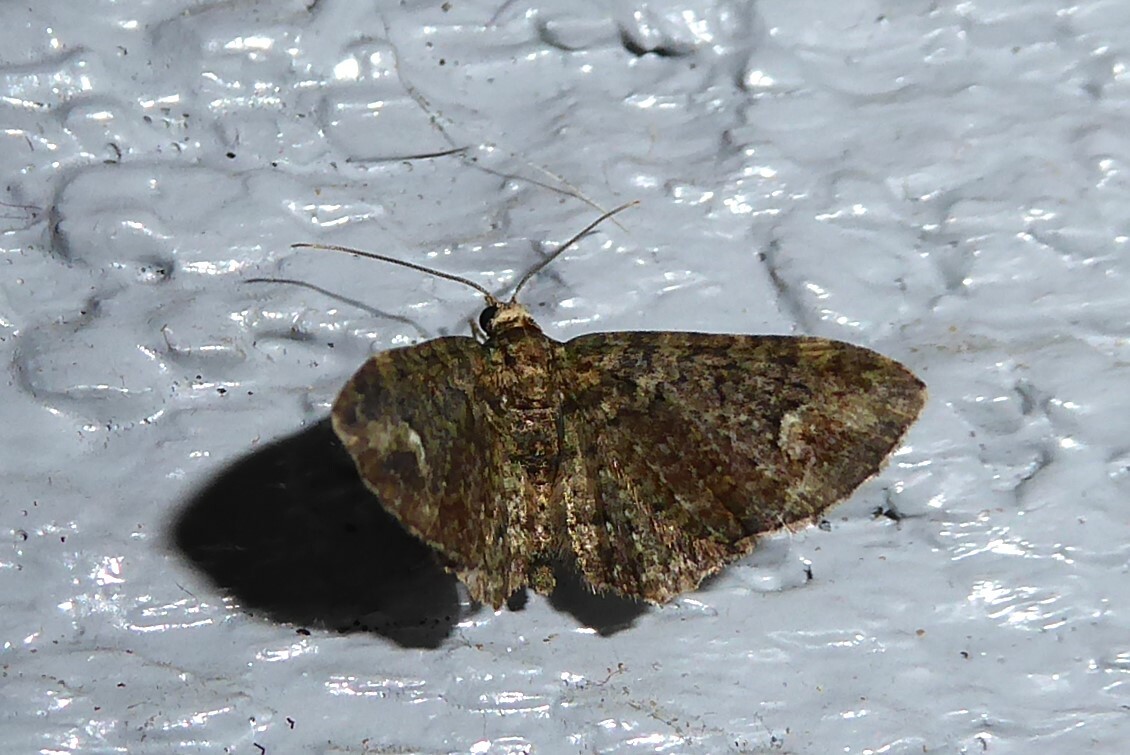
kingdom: Animalia
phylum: Arthropoda
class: Insecta
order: Lepidoptera
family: Geometridae
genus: Pasiphilodes
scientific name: Pasiphilodes testulata
